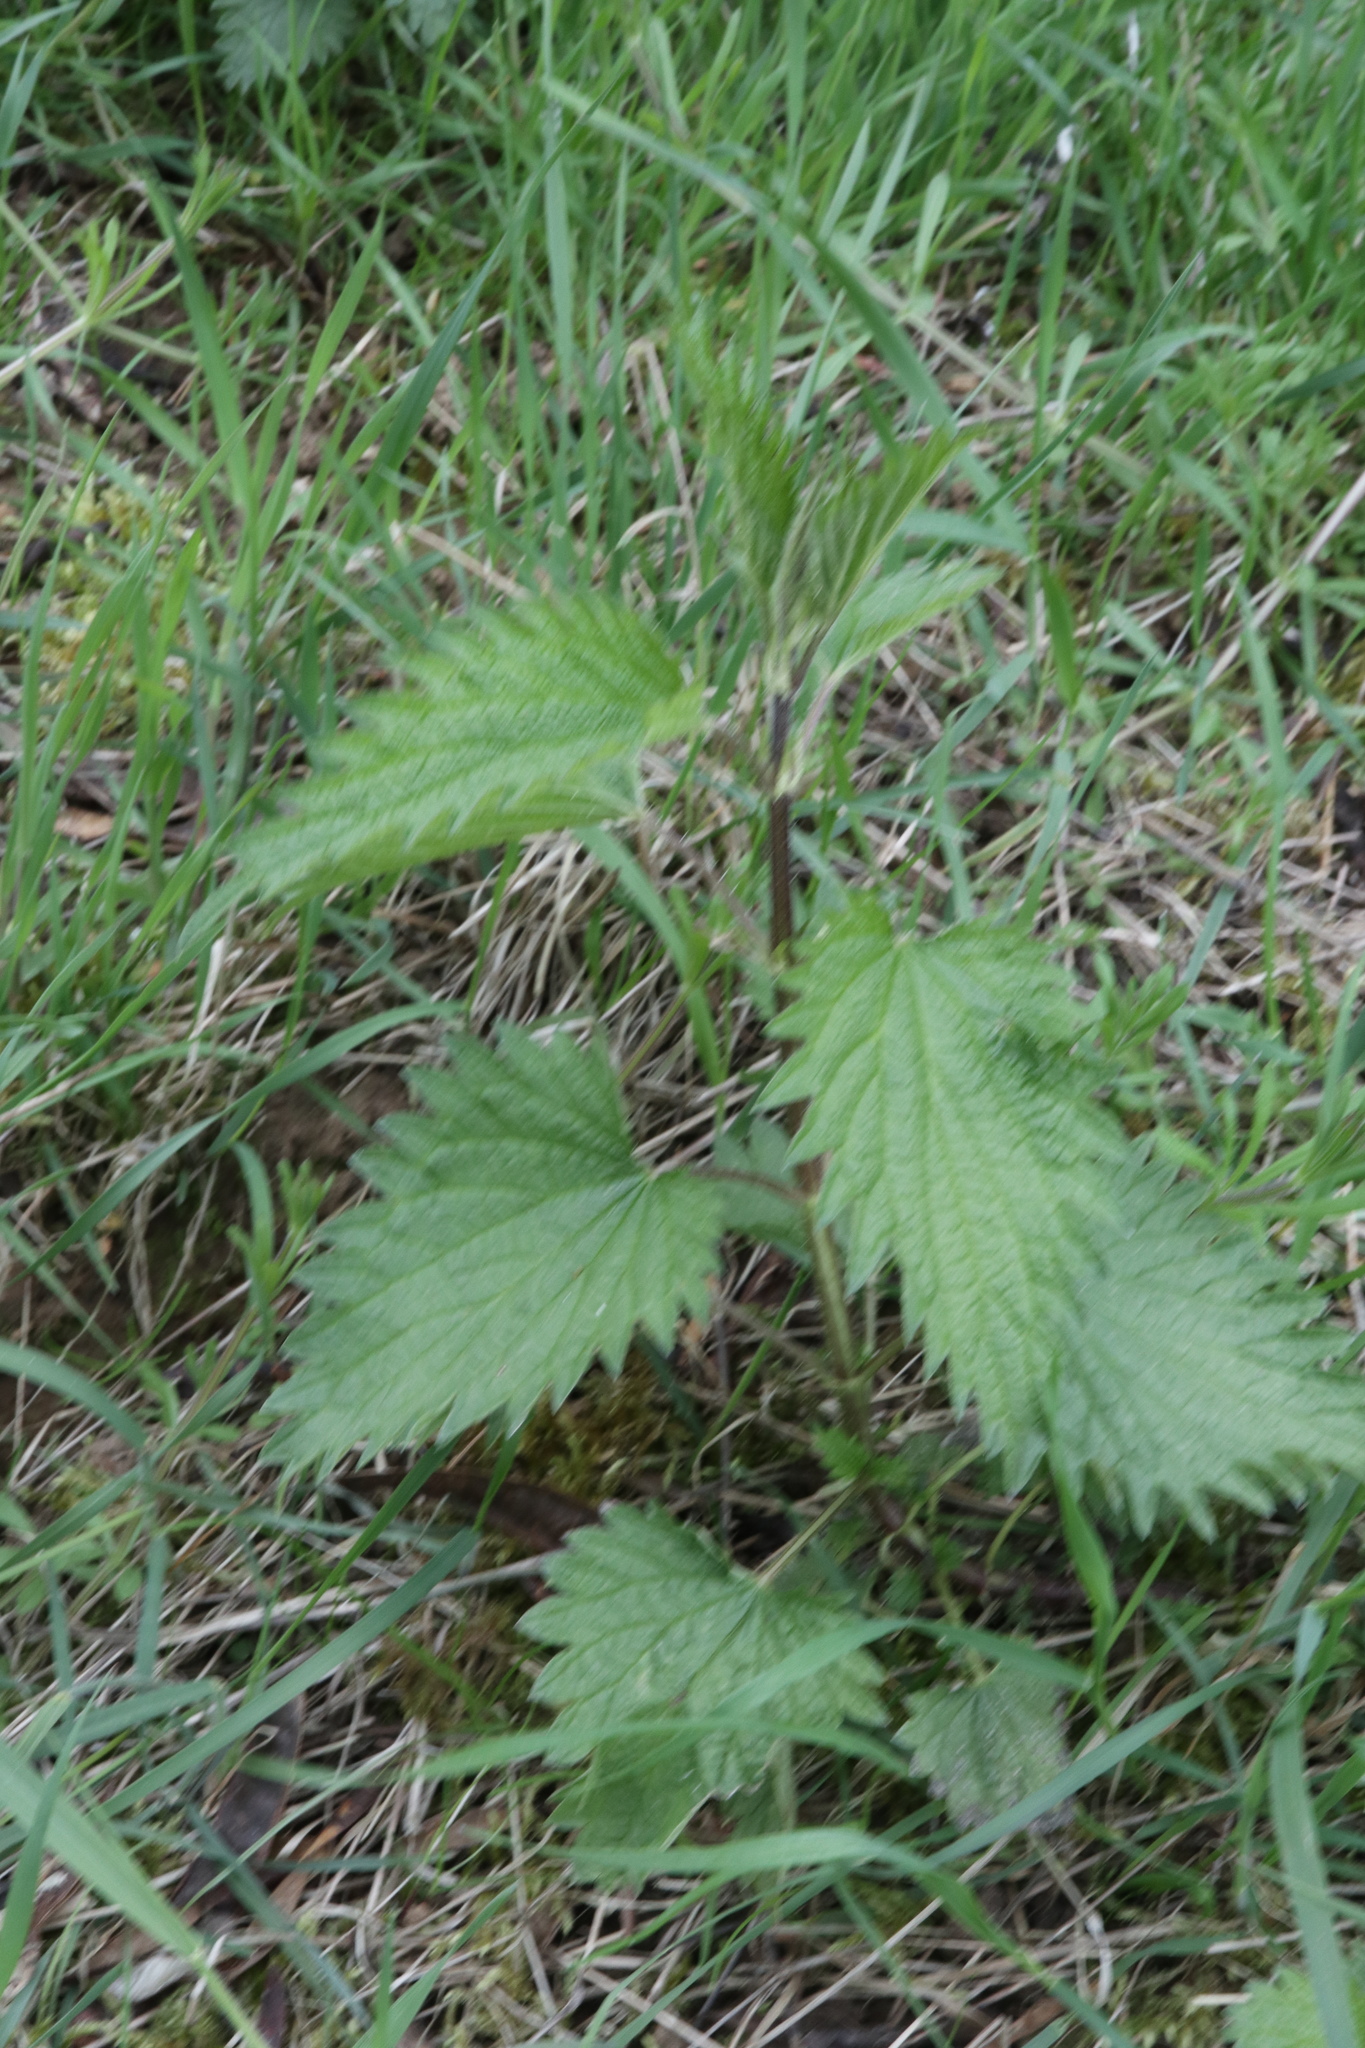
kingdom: Plantae
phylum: Tracheophyta
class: Magnoliopsida
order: Rosales
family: Urticaceae
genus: Urtica
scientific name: Urtica dioica
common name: Common nettle
